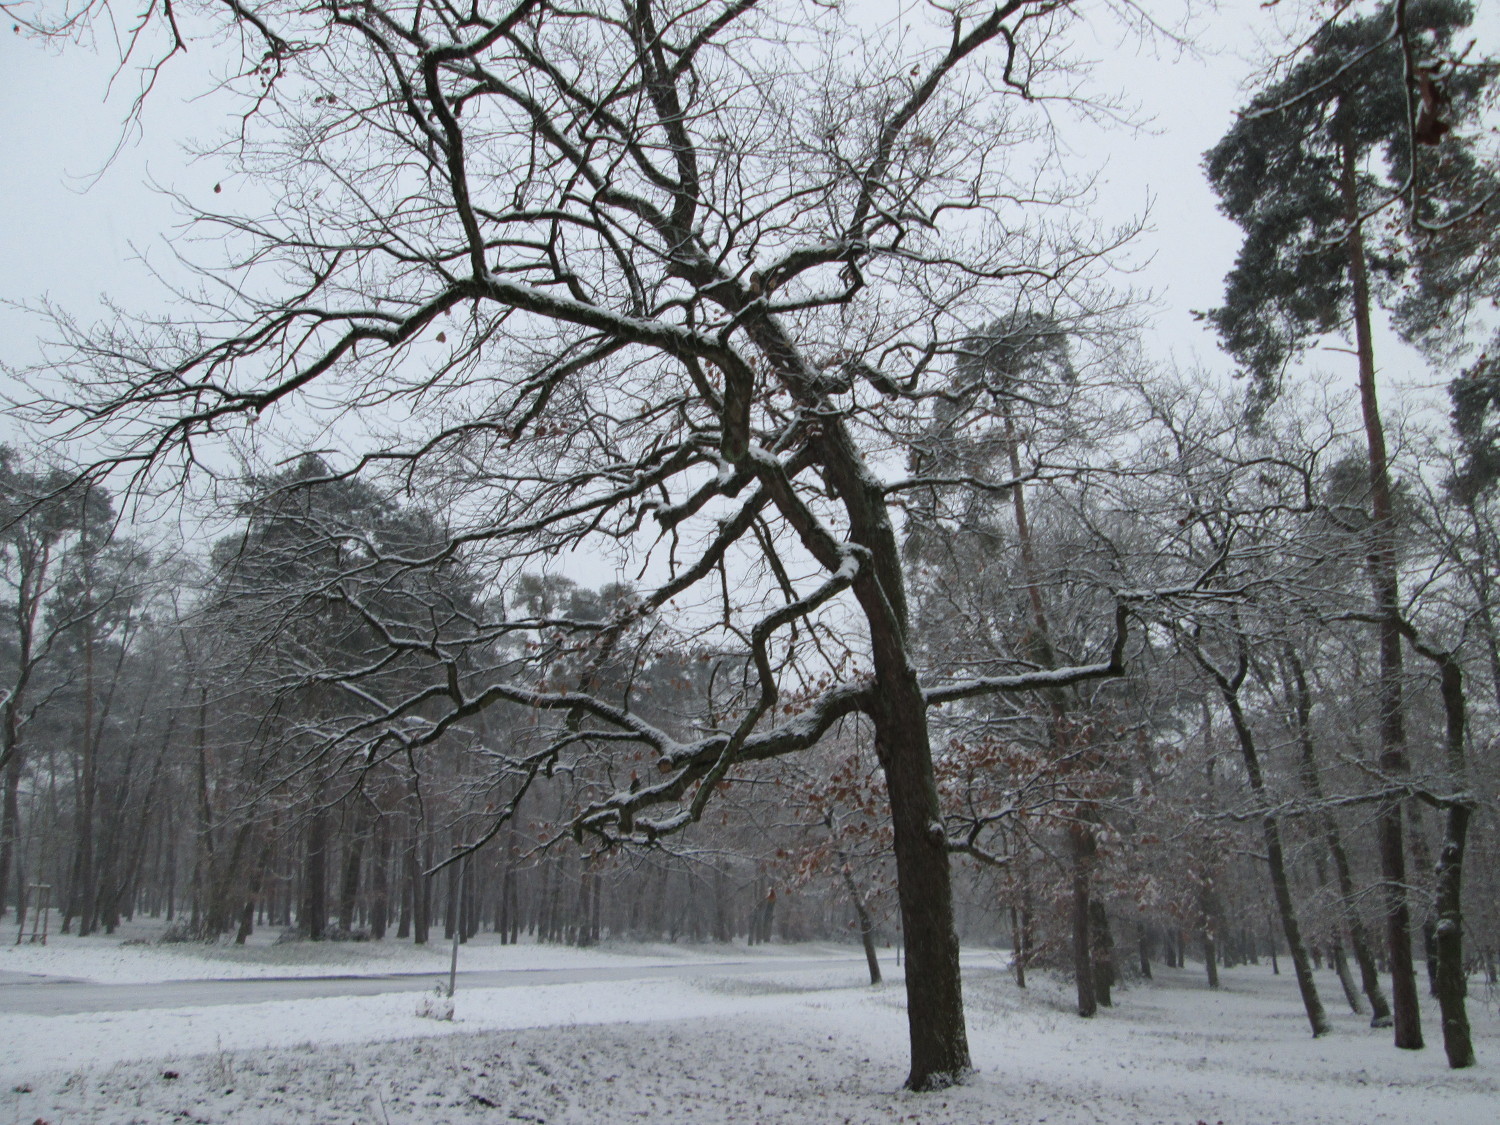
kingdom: Plantae
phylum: Tracheophyta
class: Magnoliopsida
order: Fagales
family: Fagaceae
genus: Quercus
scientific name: Quercus robur
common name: Pedunculate oak
